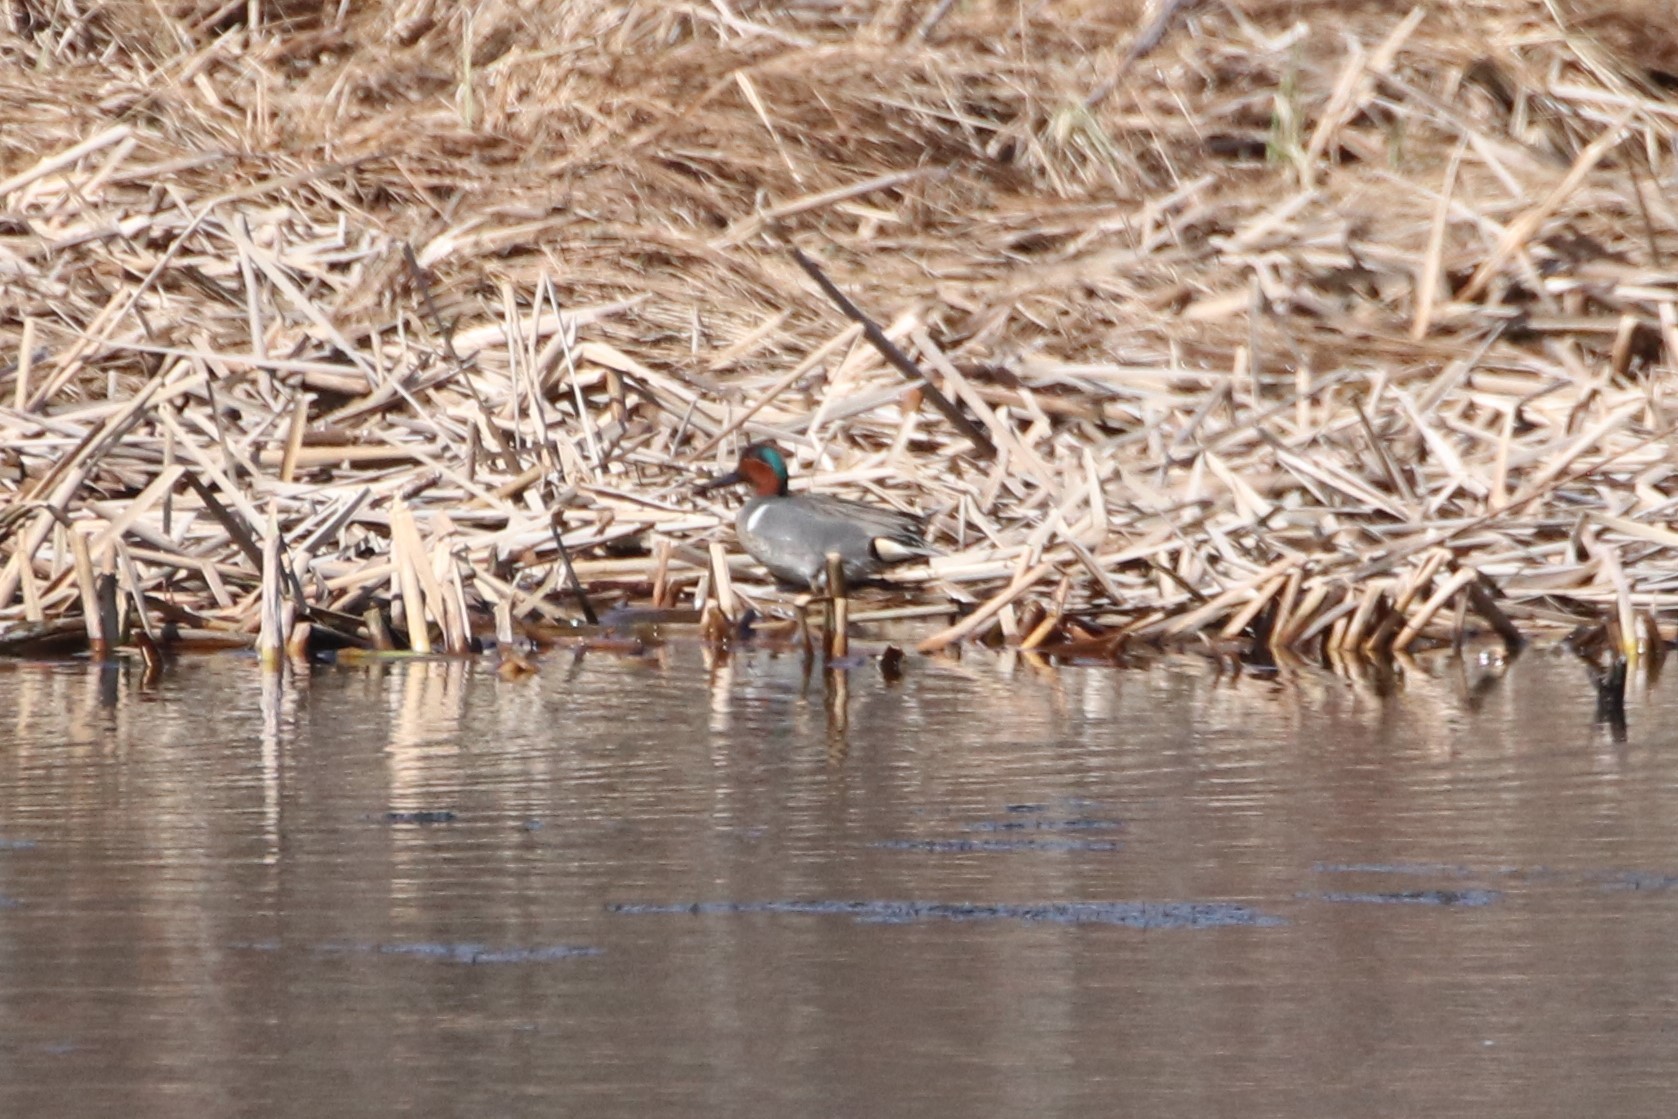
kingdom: Animalia
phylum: Chordata
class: Aves
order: Anseriformes
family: Anatidae
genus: Anas
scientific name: Anas crecca
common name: Eurasian teal
